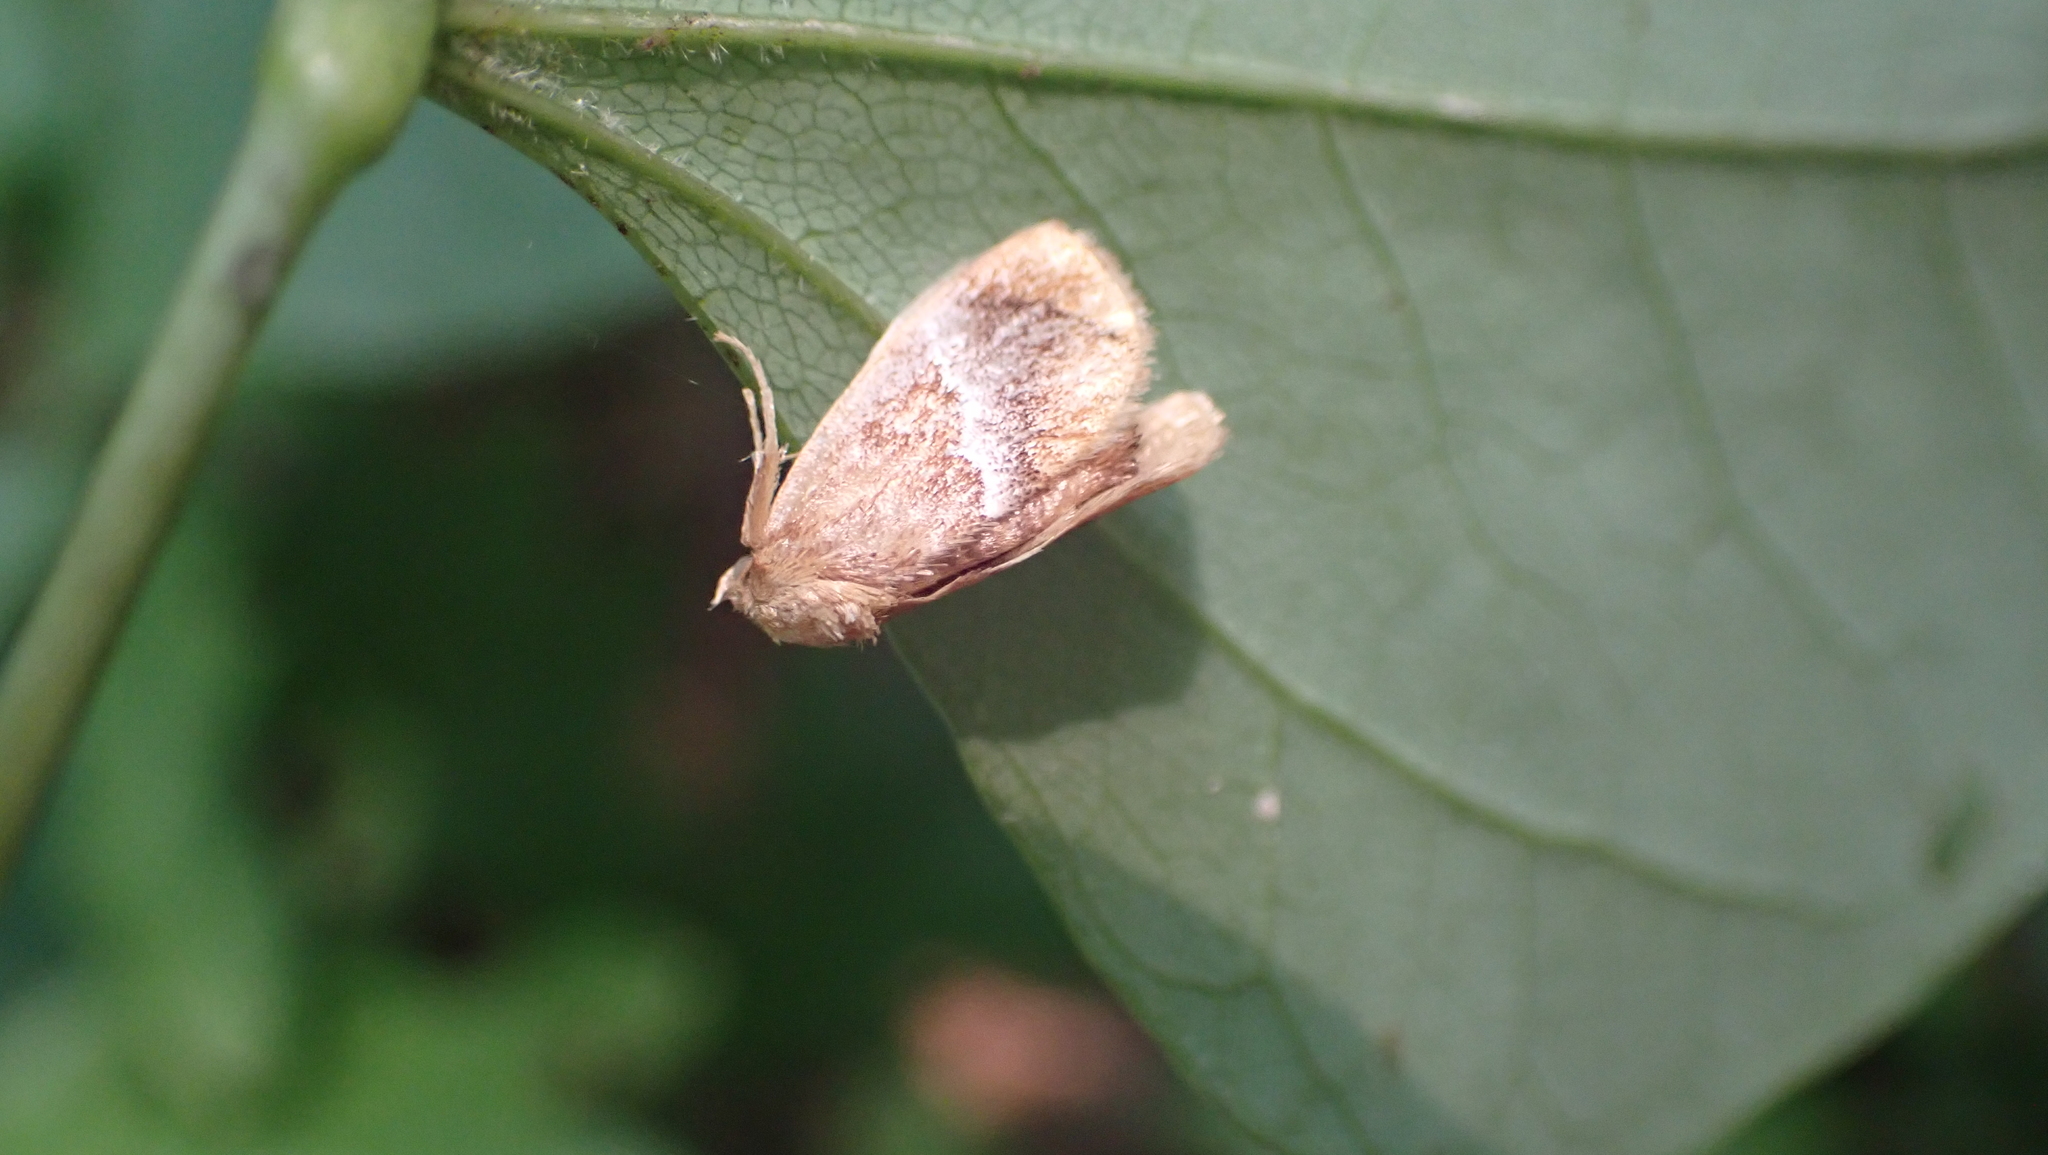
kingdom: Animalia
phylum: Arthropoda
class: Insecta
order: Lepidoptera
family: Limacodidae
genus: Lithacodes
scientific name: Lithacodes fasciola
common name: Yellow-shouldered slug moth
